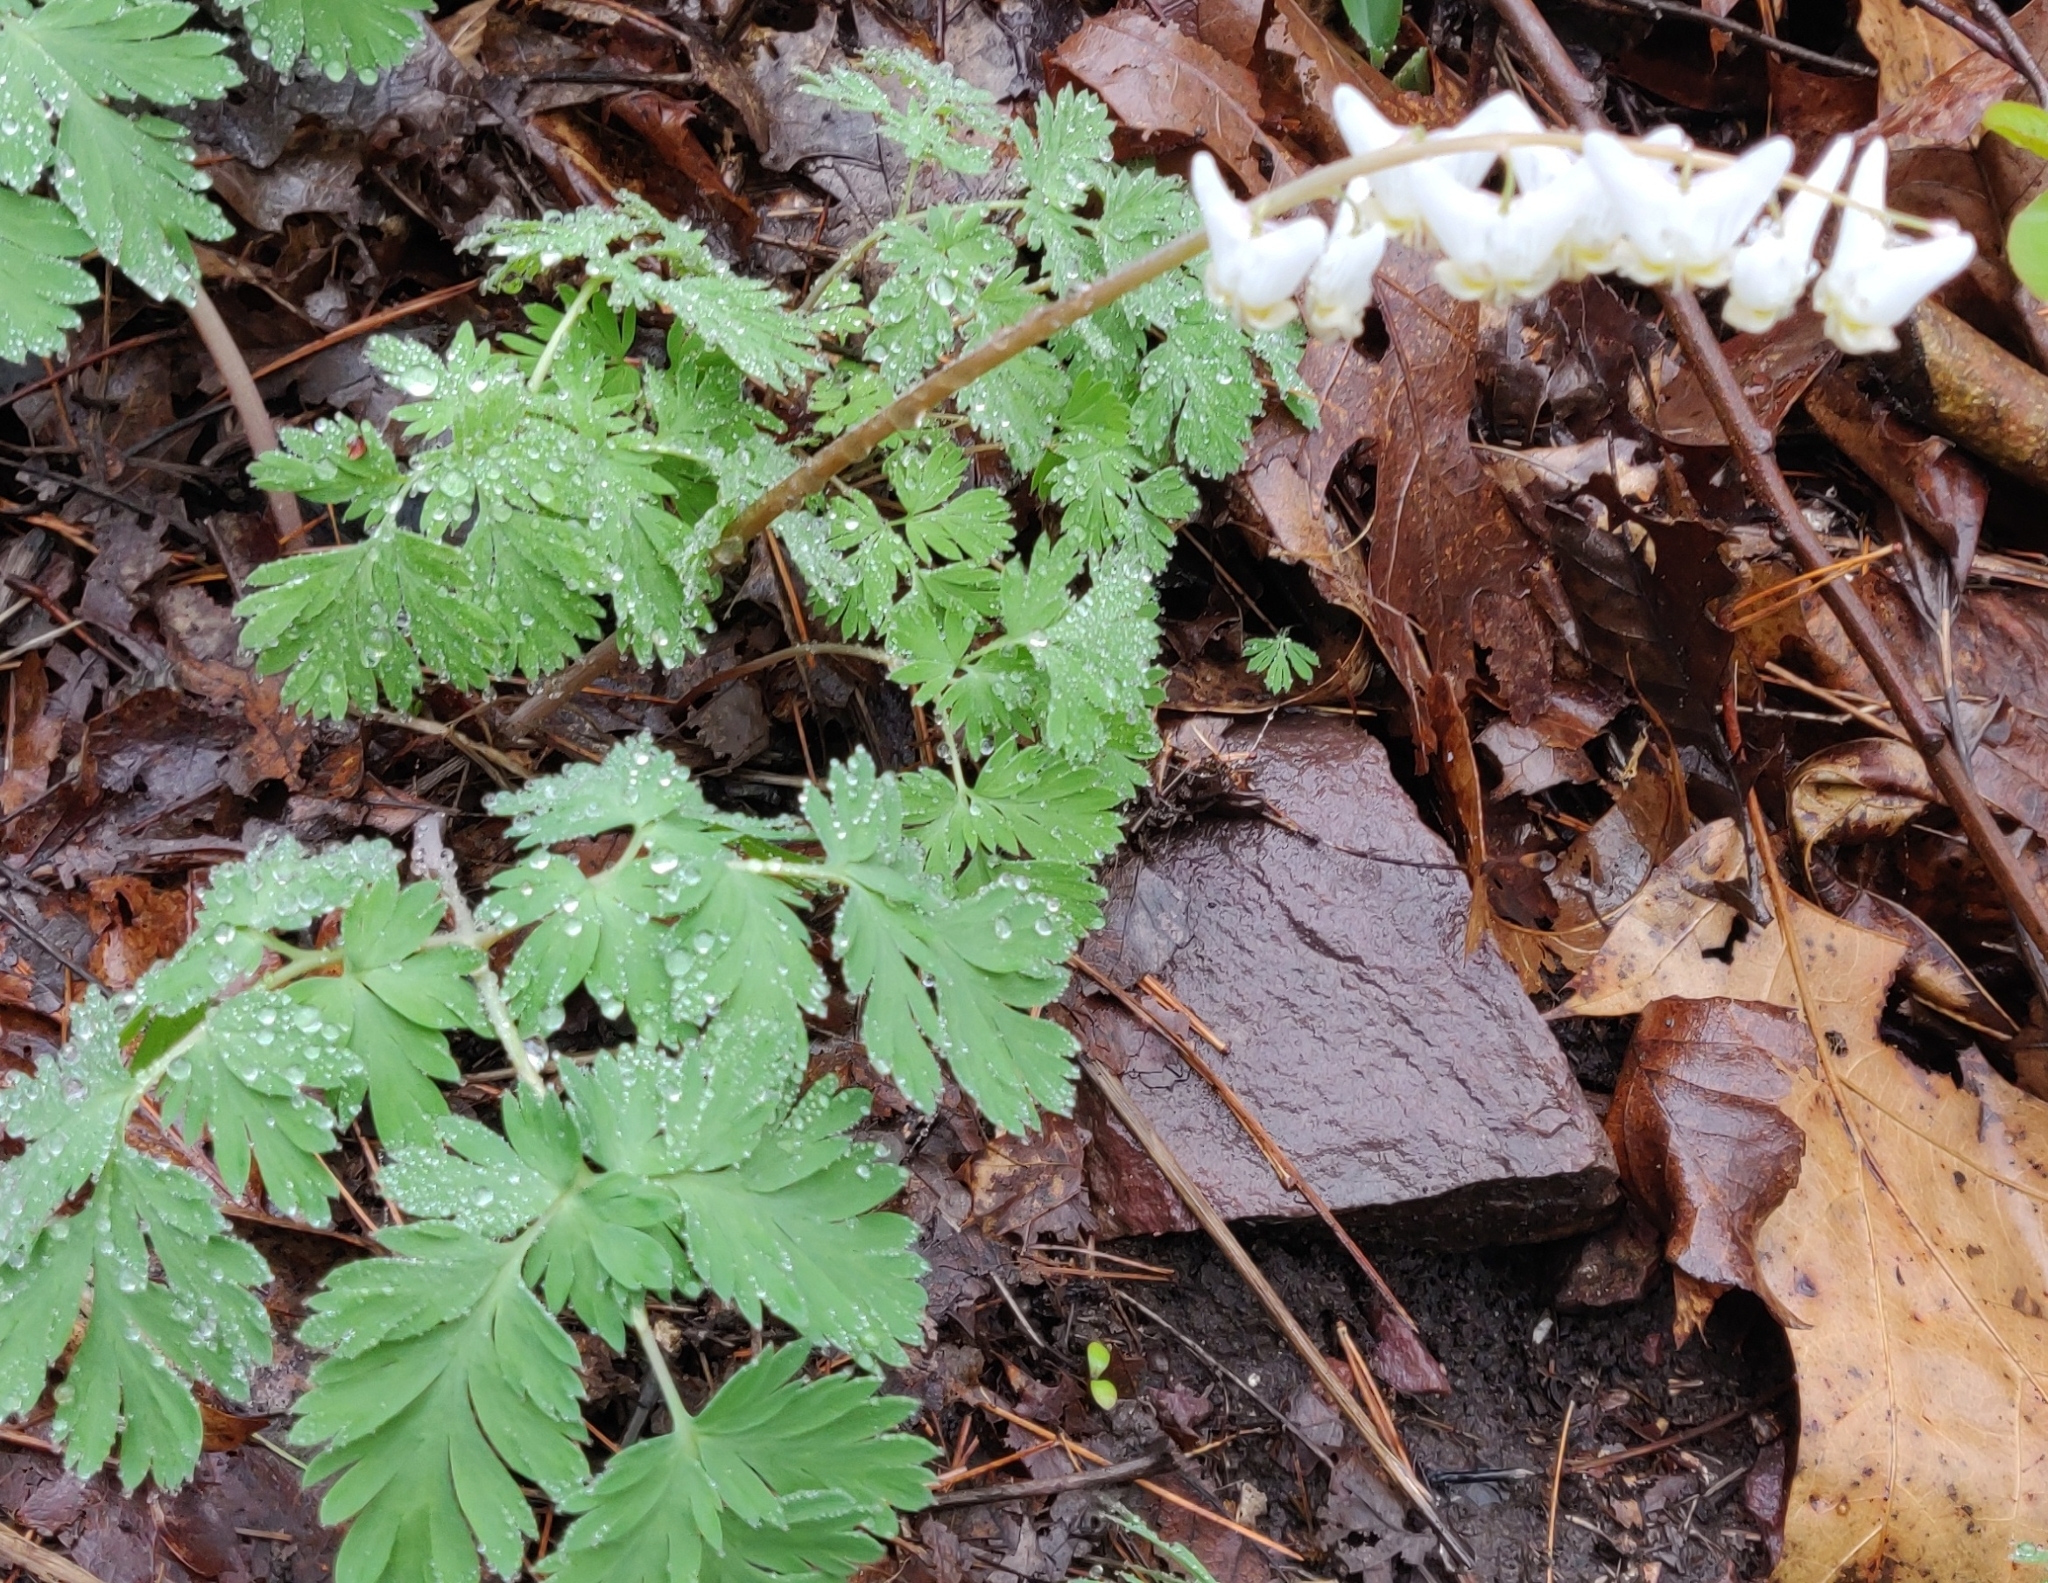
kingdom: Plantae
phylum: Tracheophyta
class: Magnoliopsida
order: Ranunculales
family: Papaveraceae
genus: Dicentra
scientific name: Dicentra cucullaria
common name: Dutchman's breeches
